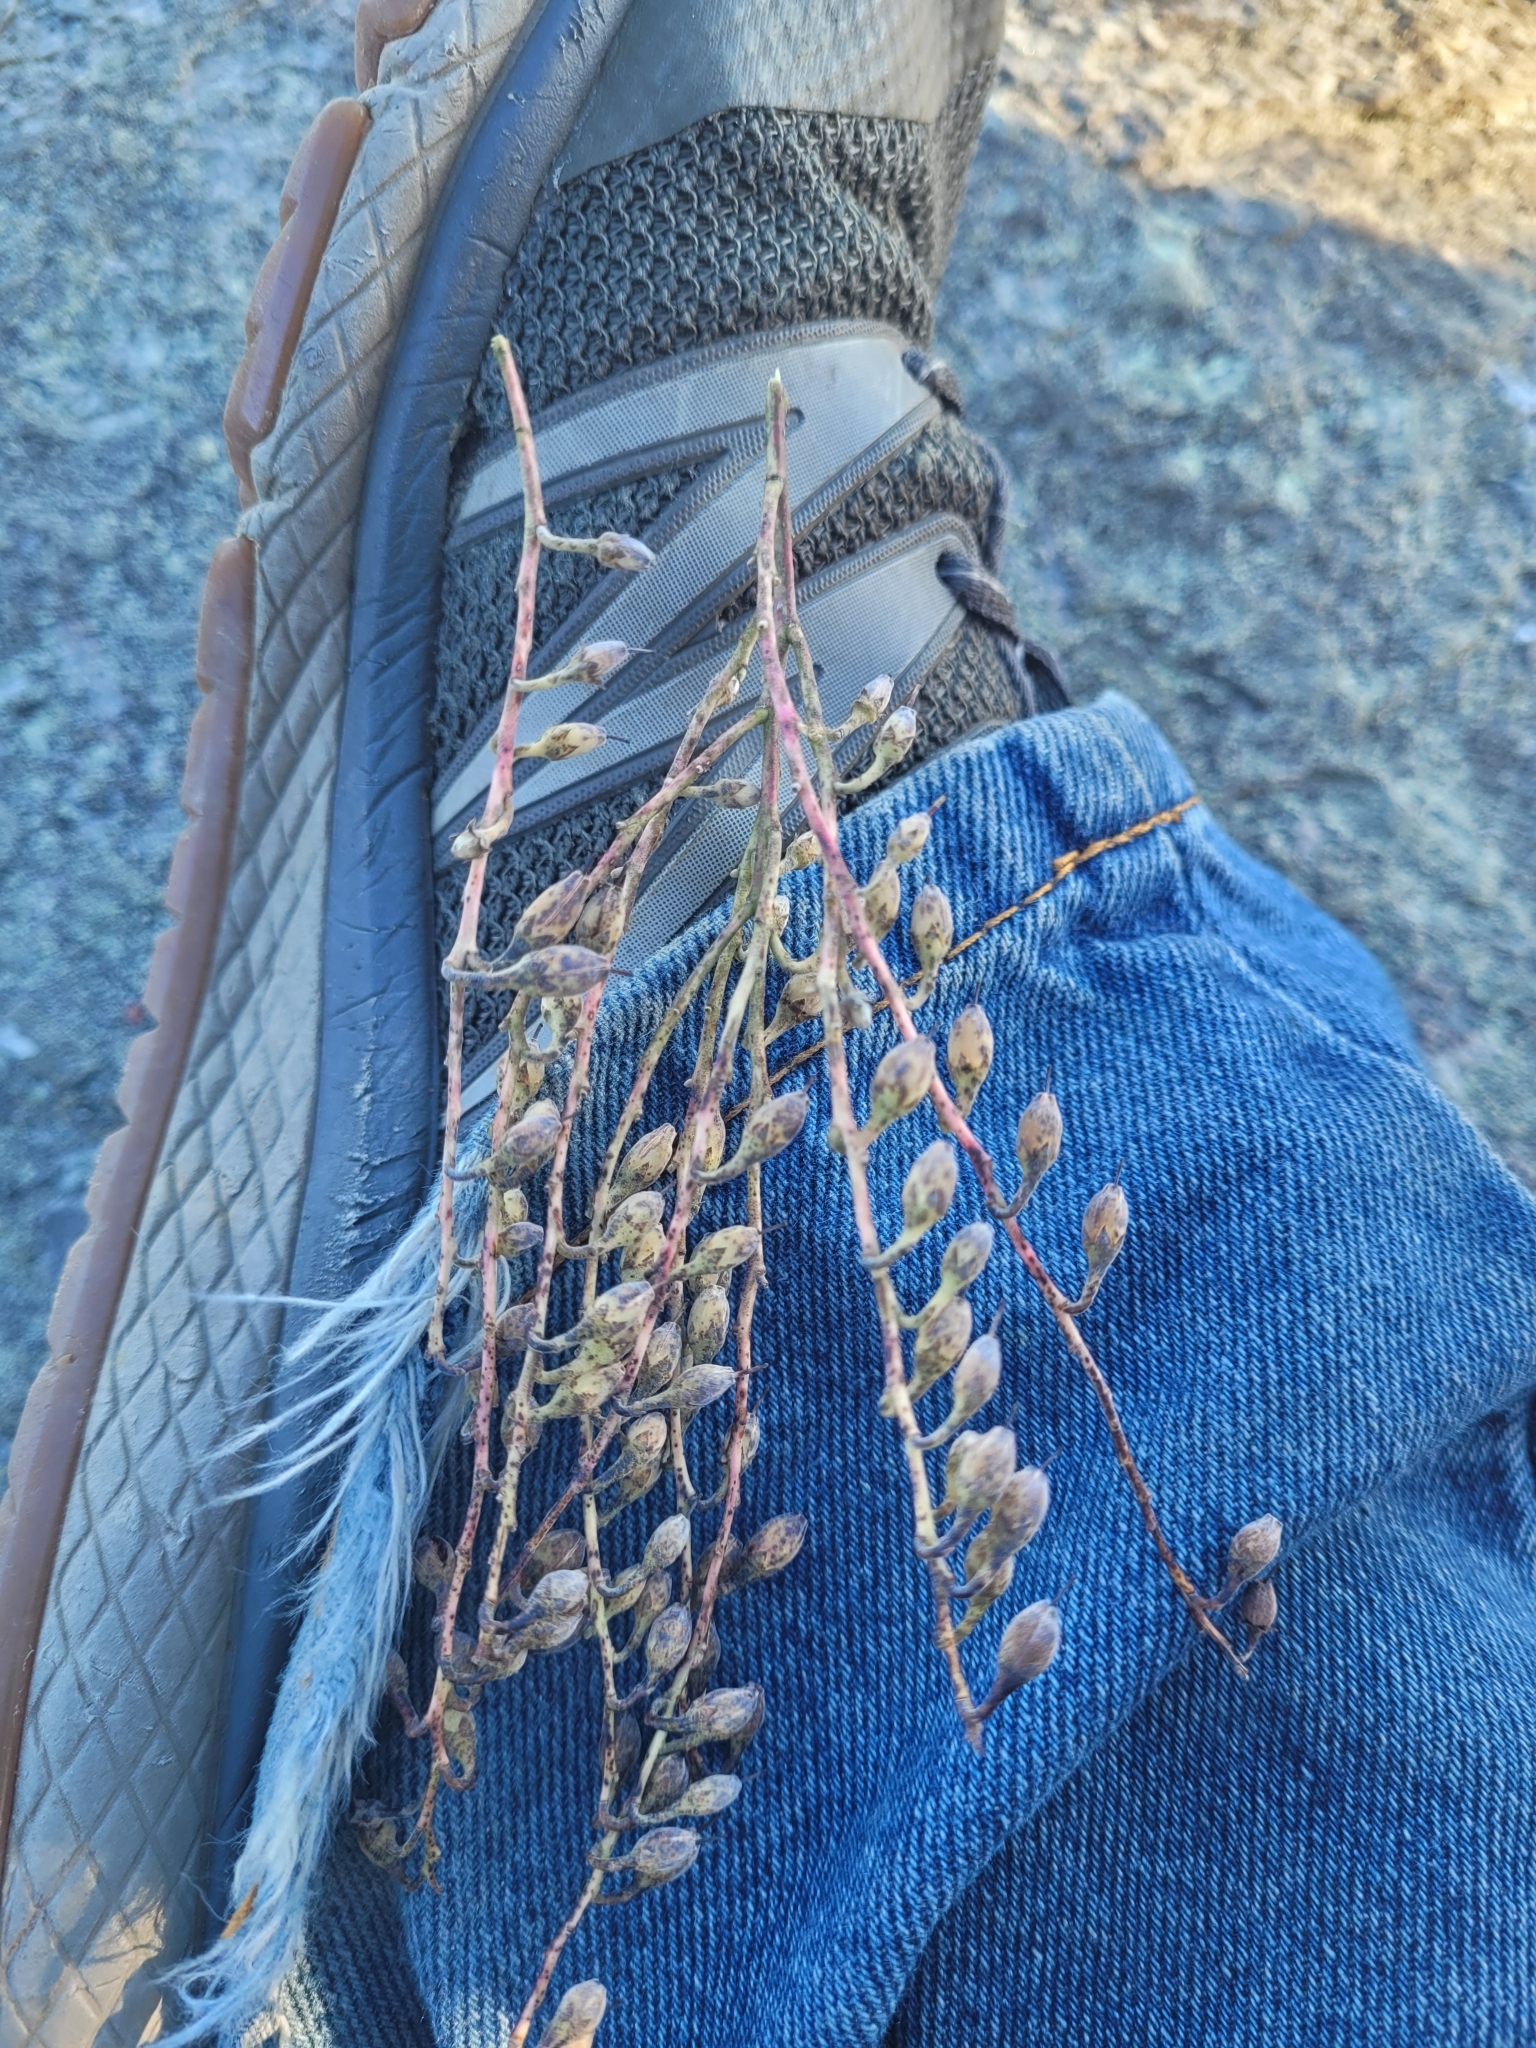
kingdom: Plantae
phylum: Tracheophyta
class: Magnoliopsida
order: Ericales
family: Ericaceae
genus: Oxydendrum
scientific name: Oxydendrum arboreum
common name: Sourwood
